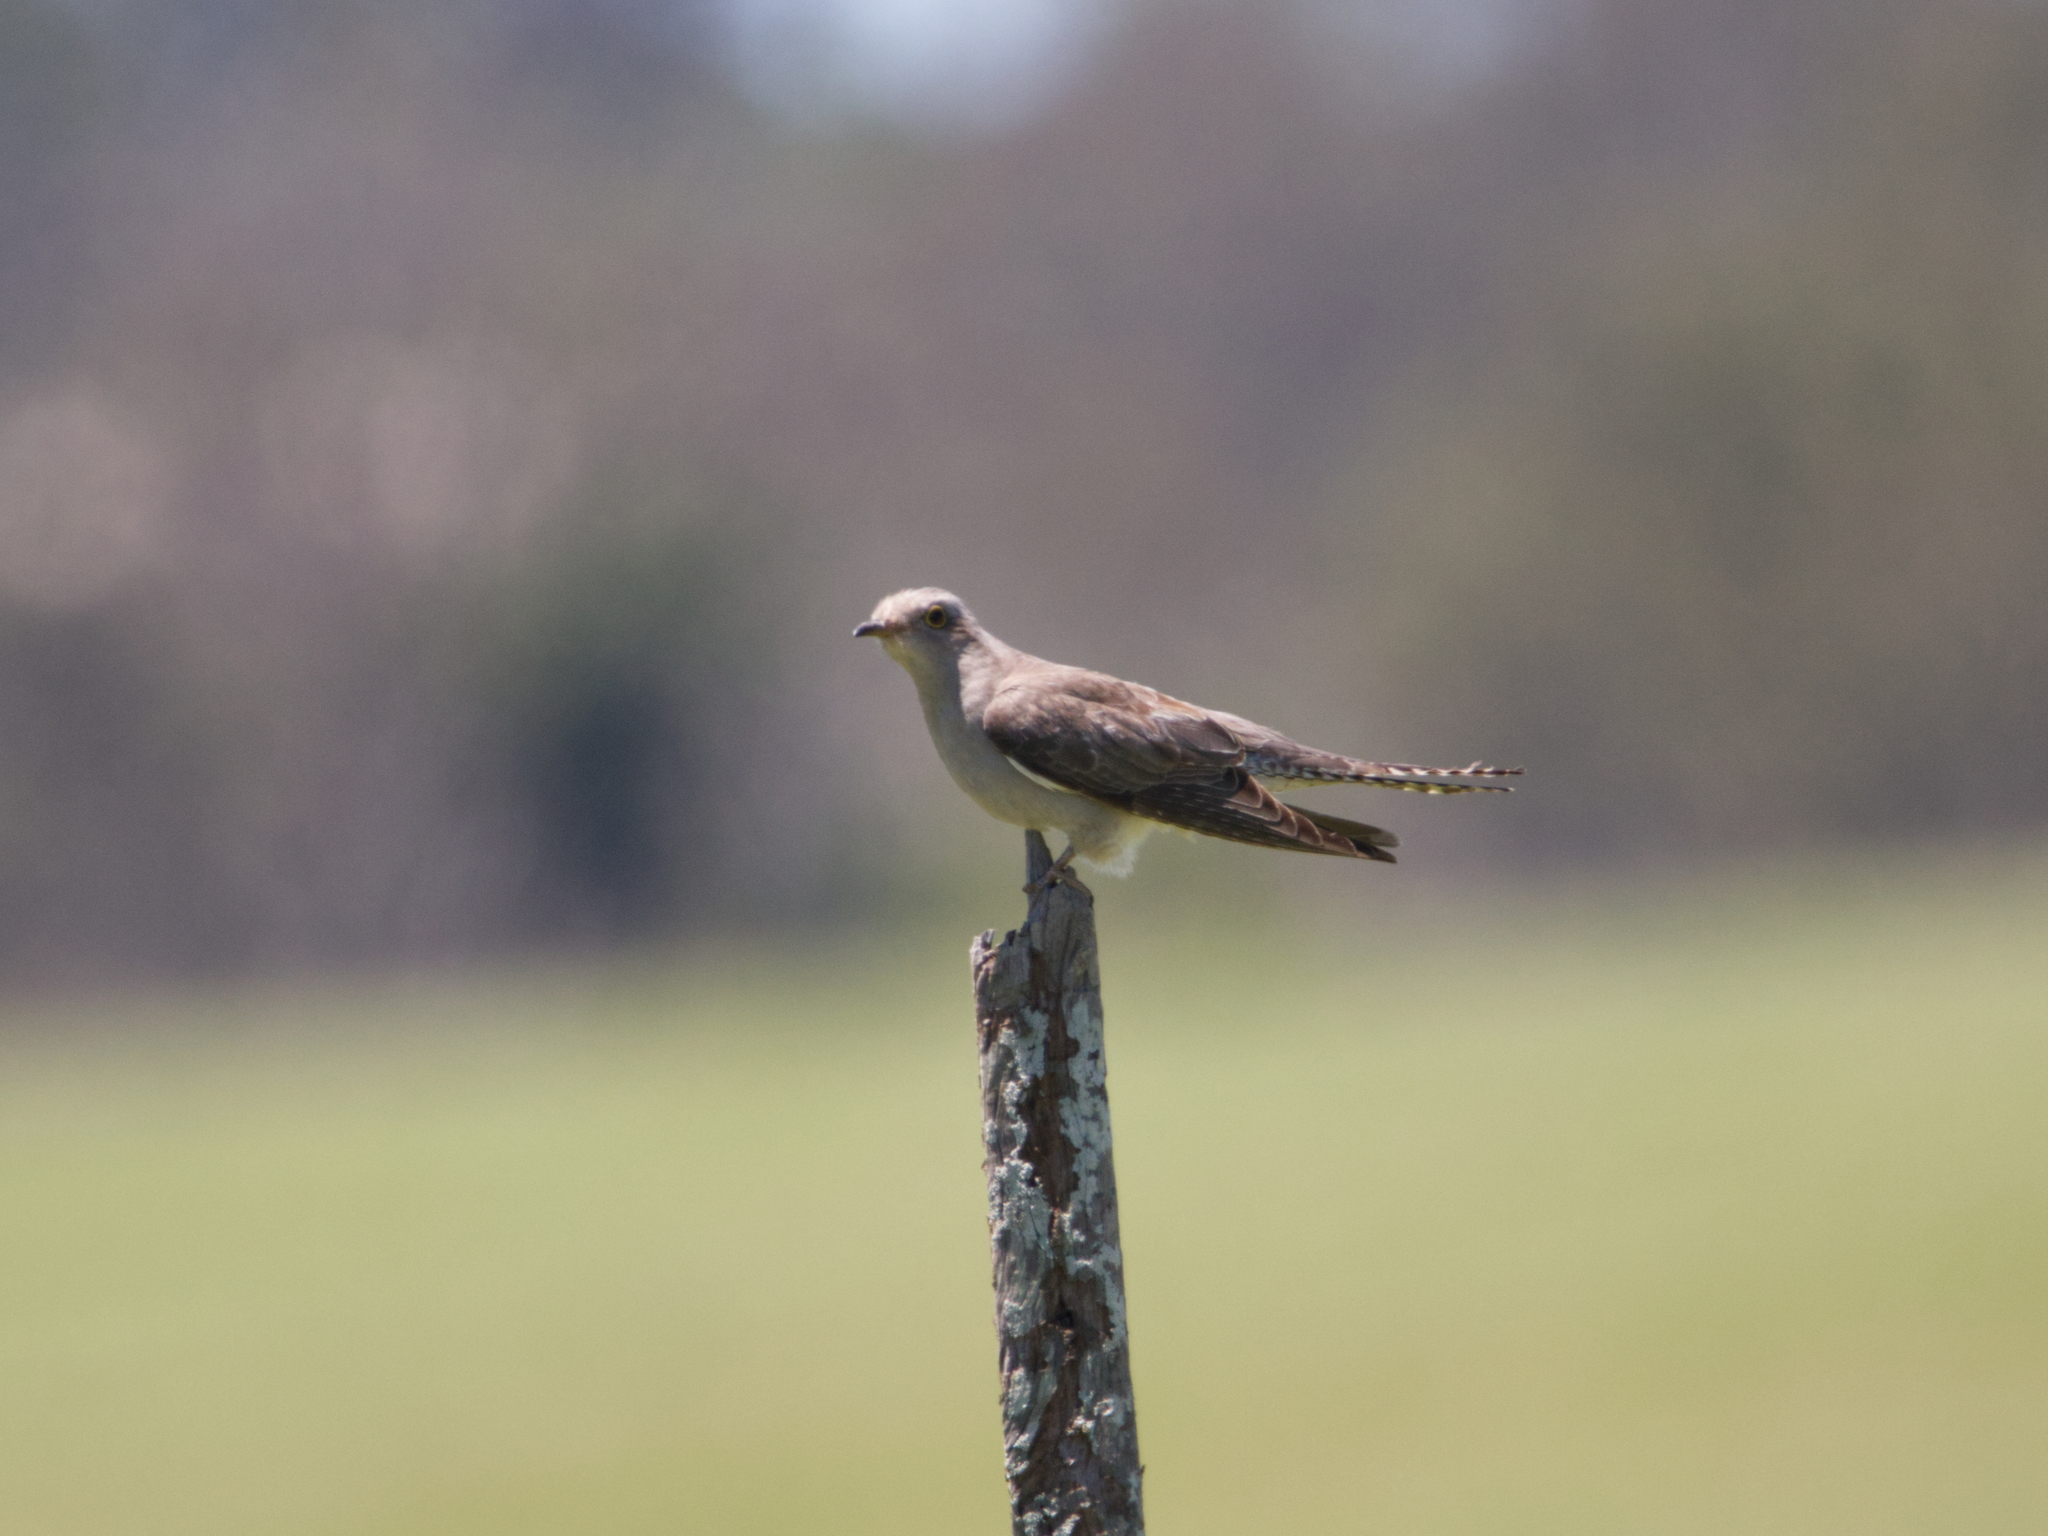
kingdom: Animalia
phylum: Chordata
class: Aves
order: Cuculiformes
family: Cuculidae
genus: Cuculus
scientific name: Cuculus pallidus
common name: Pallid cuckoo
